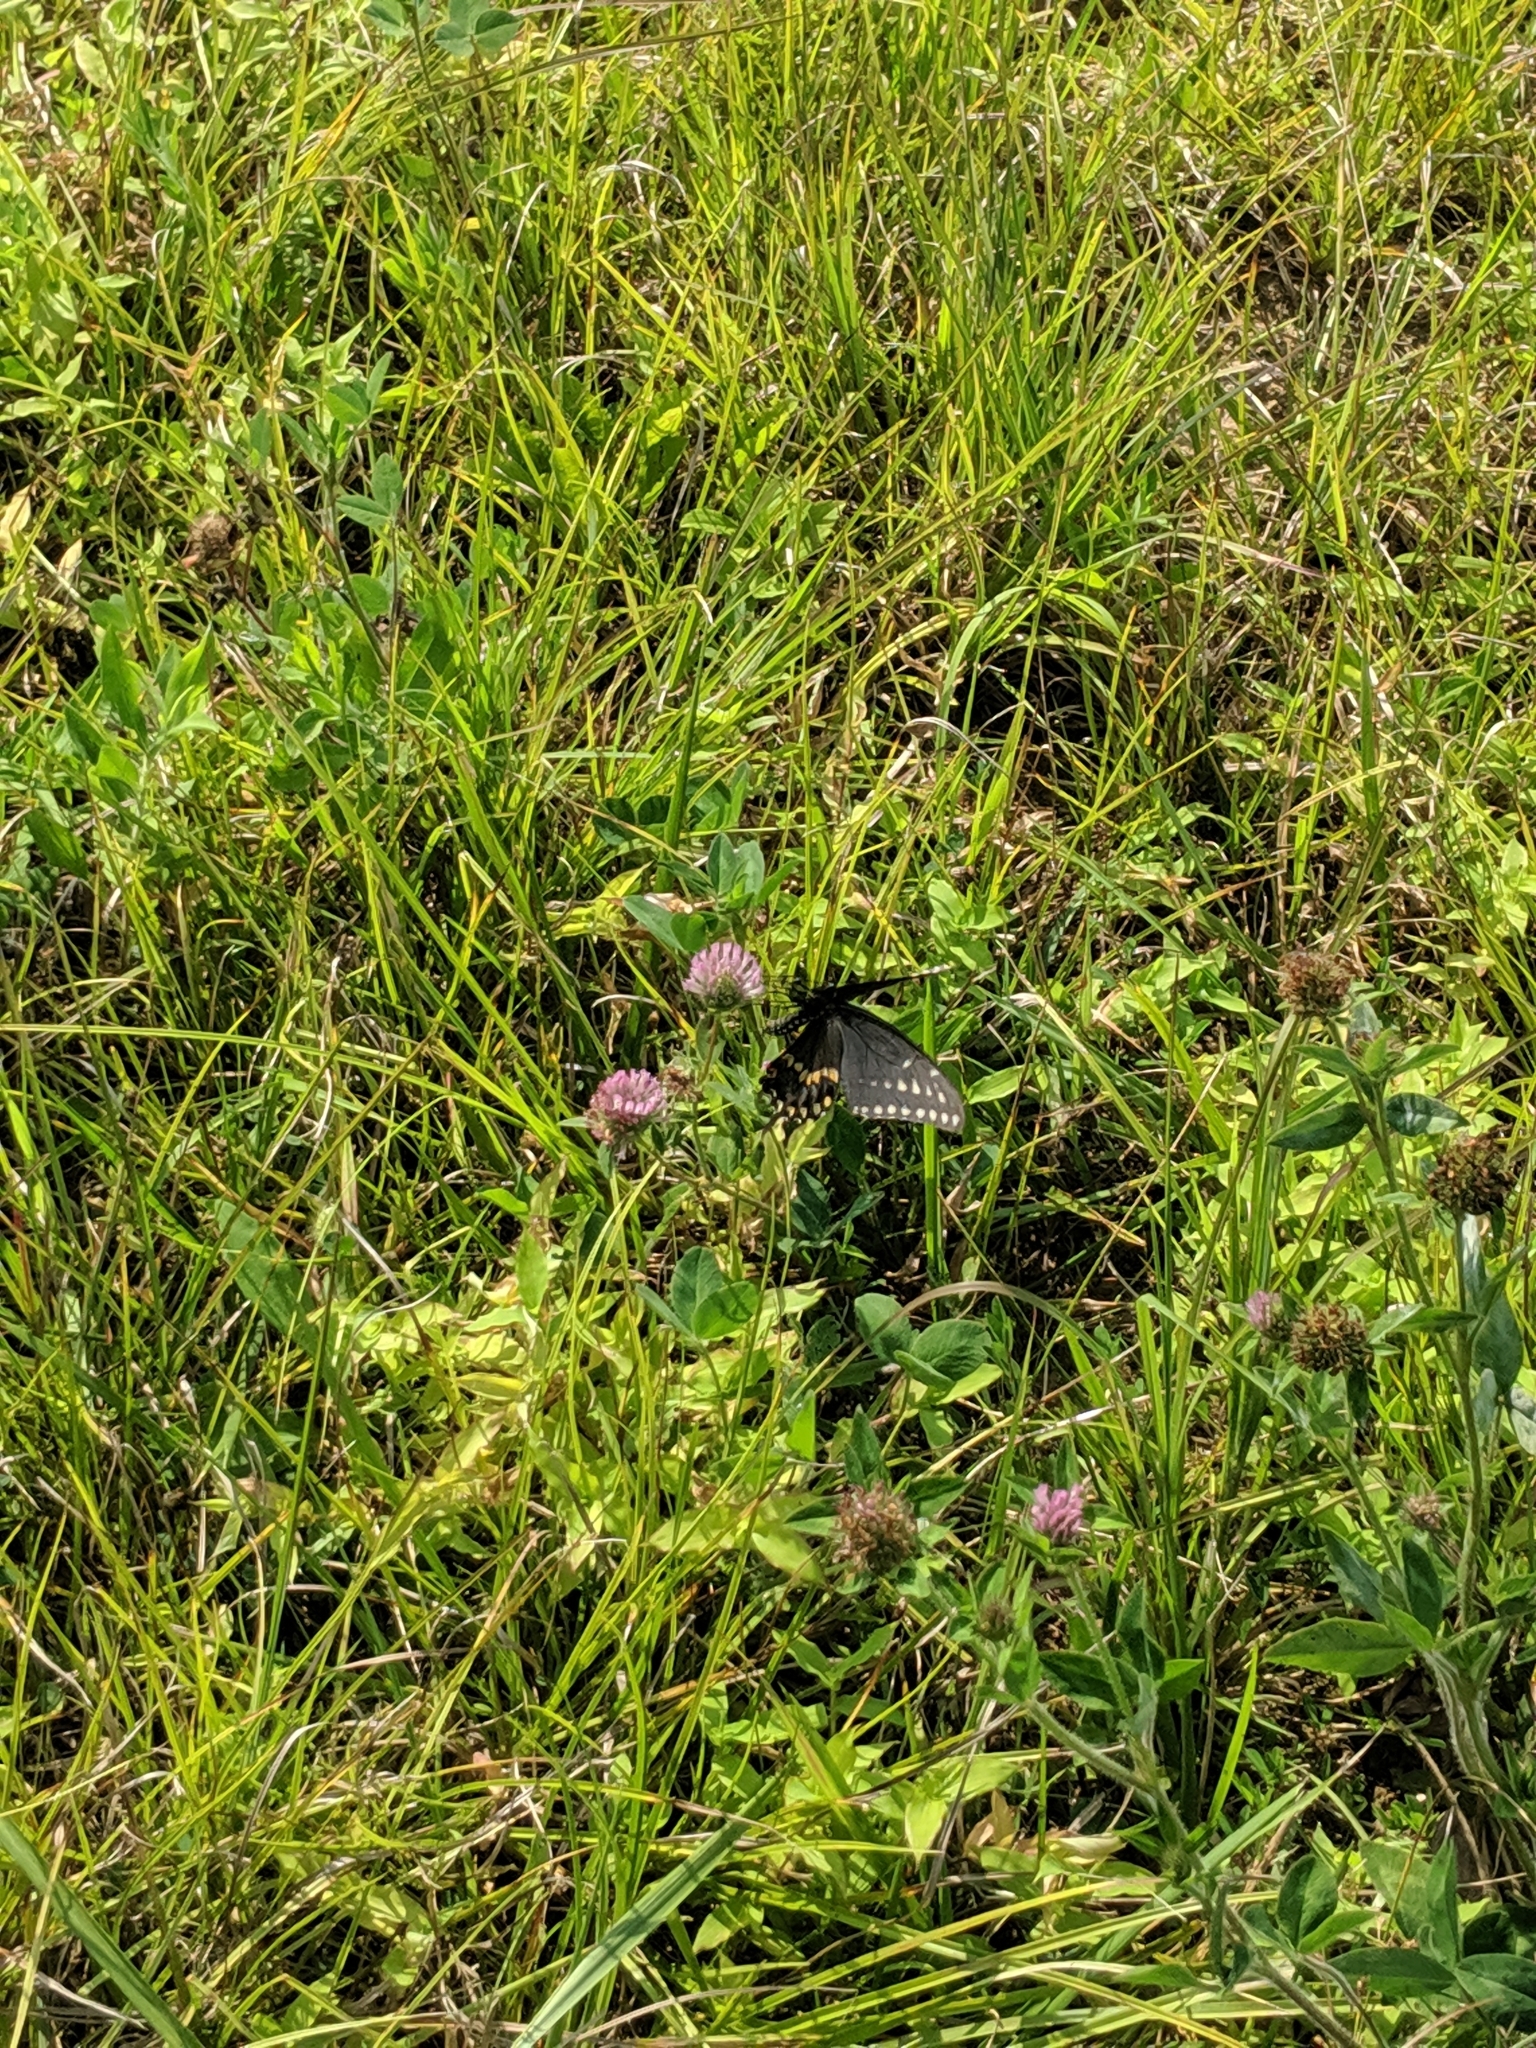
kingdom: Animalia
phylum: Arthropoda
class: Insecta
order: Lepidoptera
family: Papilionidae
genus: Papilio
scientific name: Papilio polyxenes
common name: Black swallowtail
